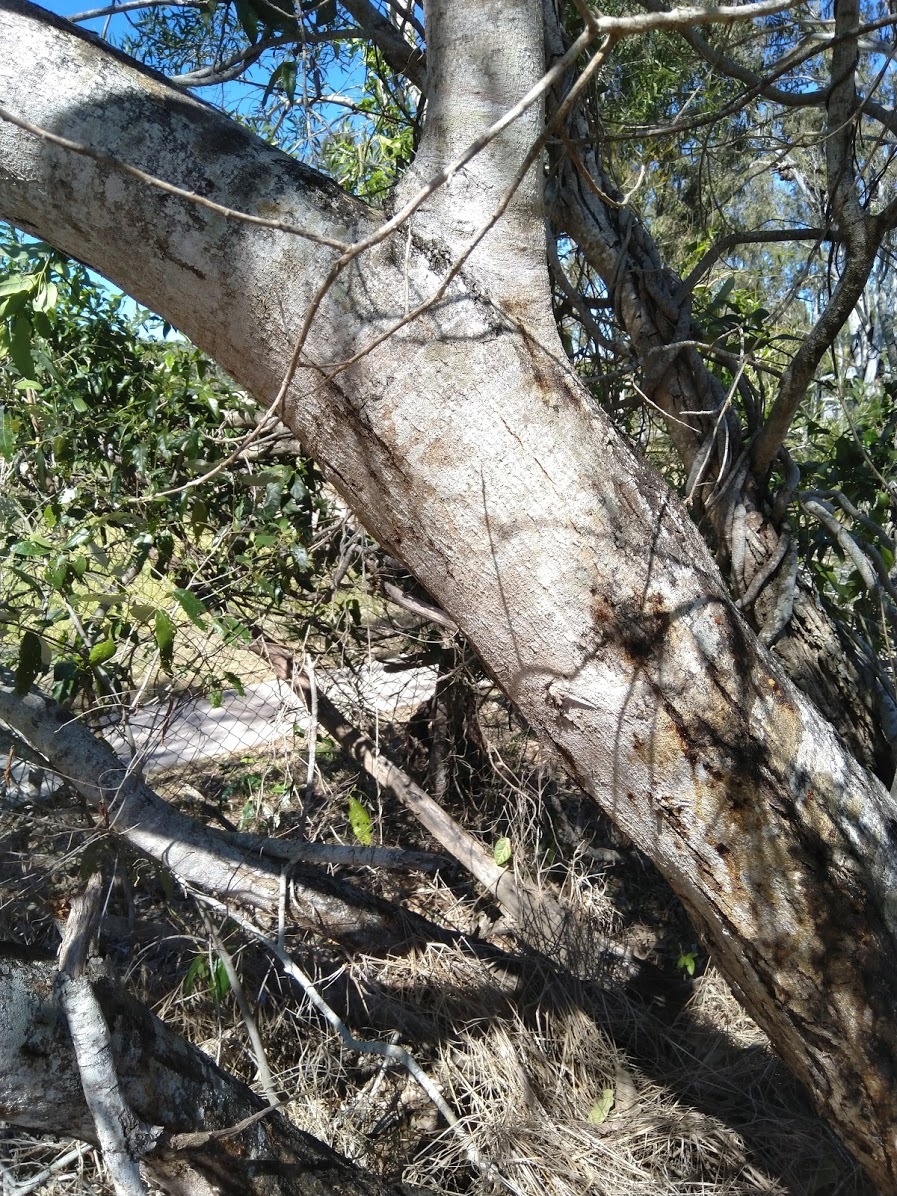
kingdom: Plantae
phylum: Tracheophyta
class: Magnoliopsida
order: Fabales
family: Fabaceae
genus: Acacia
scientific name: Acacia maidenii
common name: Maiden's wattle
